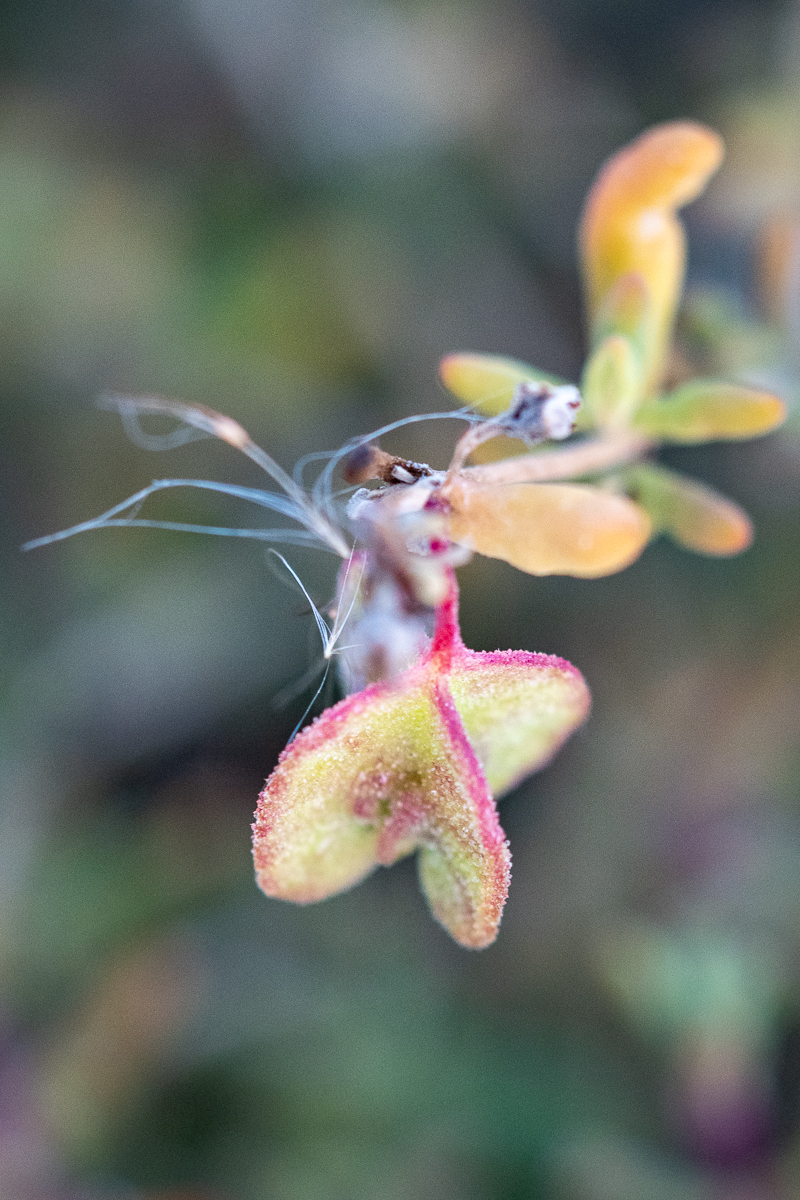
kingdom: Plantae
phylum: Tracheophyta
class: Magnoliopsida
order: Caryophyllales
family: Aizoaceae
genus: Tetragonia
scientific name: Tetragonia fruticosa
